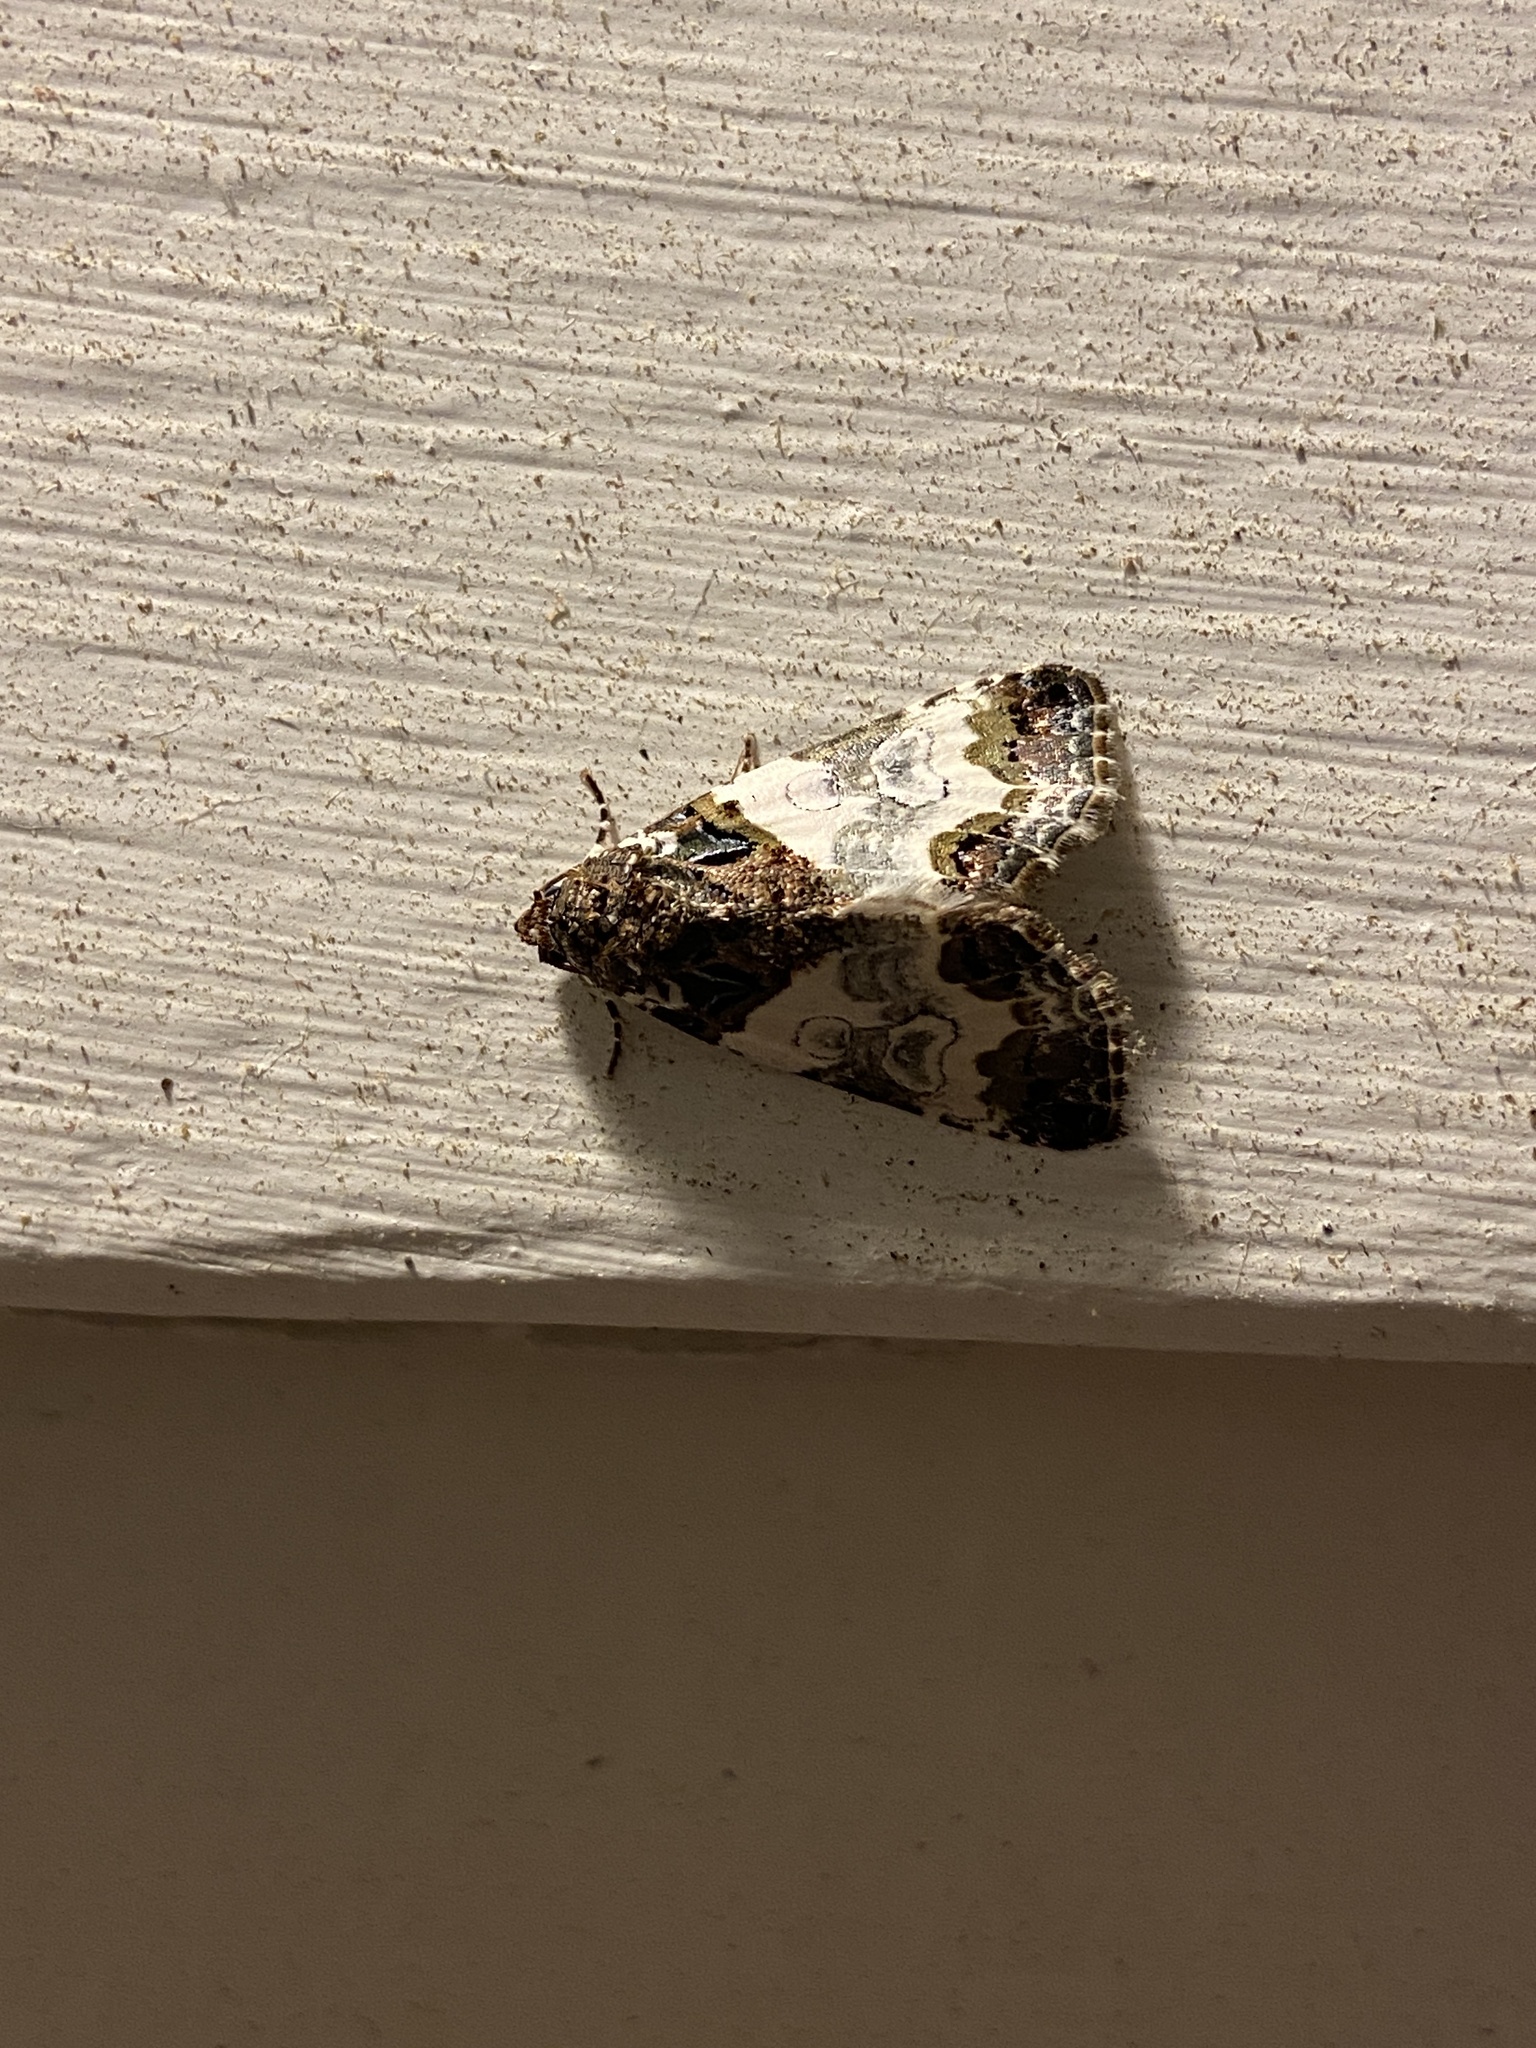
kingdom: Animalia
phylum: Arthropoda
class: Insecta
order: Lepidoptera
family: Noctuidae
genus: Cerma
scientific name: Cerma cerintha
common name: Tufted bird-dropping moth
